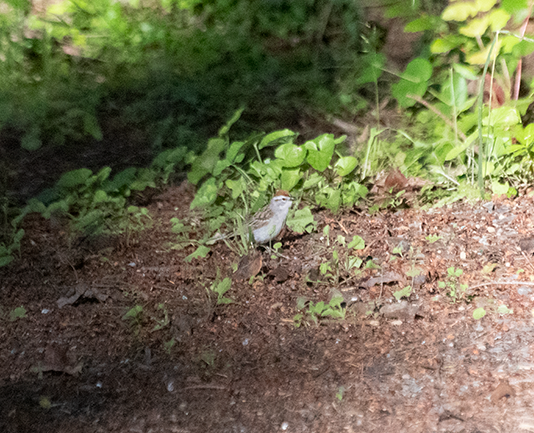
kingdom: Animalia
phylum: Chordata
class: Aves
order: Passeriformes
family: Passerellidae
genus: Spizella
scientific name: Spizella passerina
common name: Chipping sparrow
